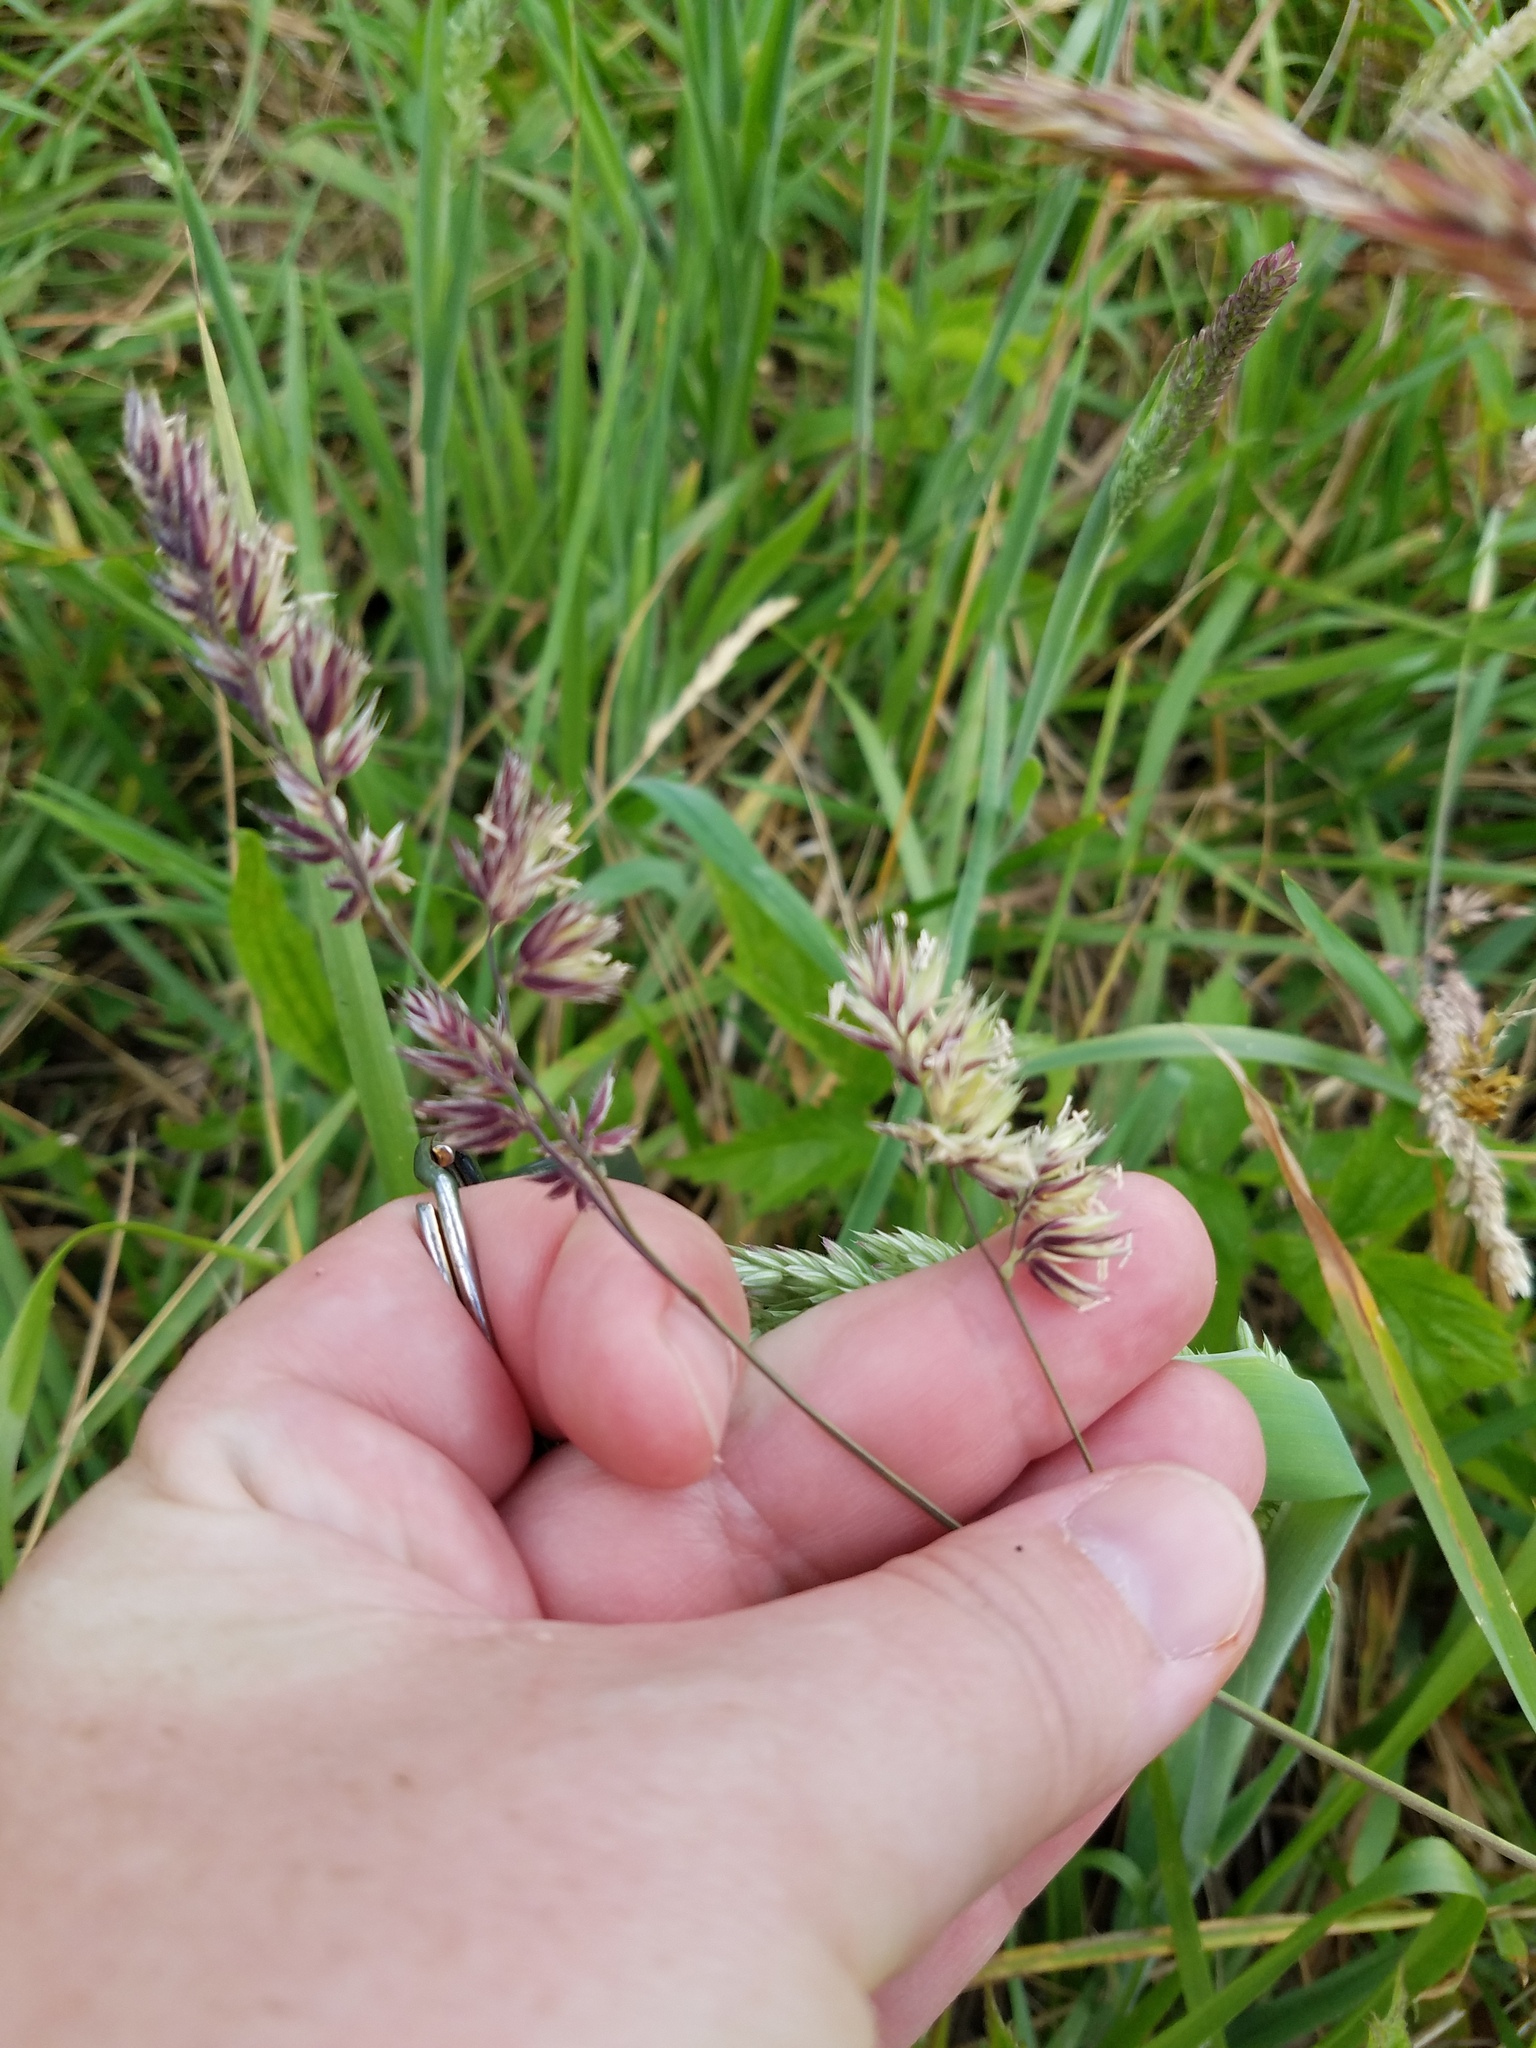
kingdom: Plantae
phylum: Tracheophyta
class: Liliopsida
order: Poales
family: Poaceae
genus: Dactylis
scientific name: Dactylis glomerata
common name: Orchardgrass
